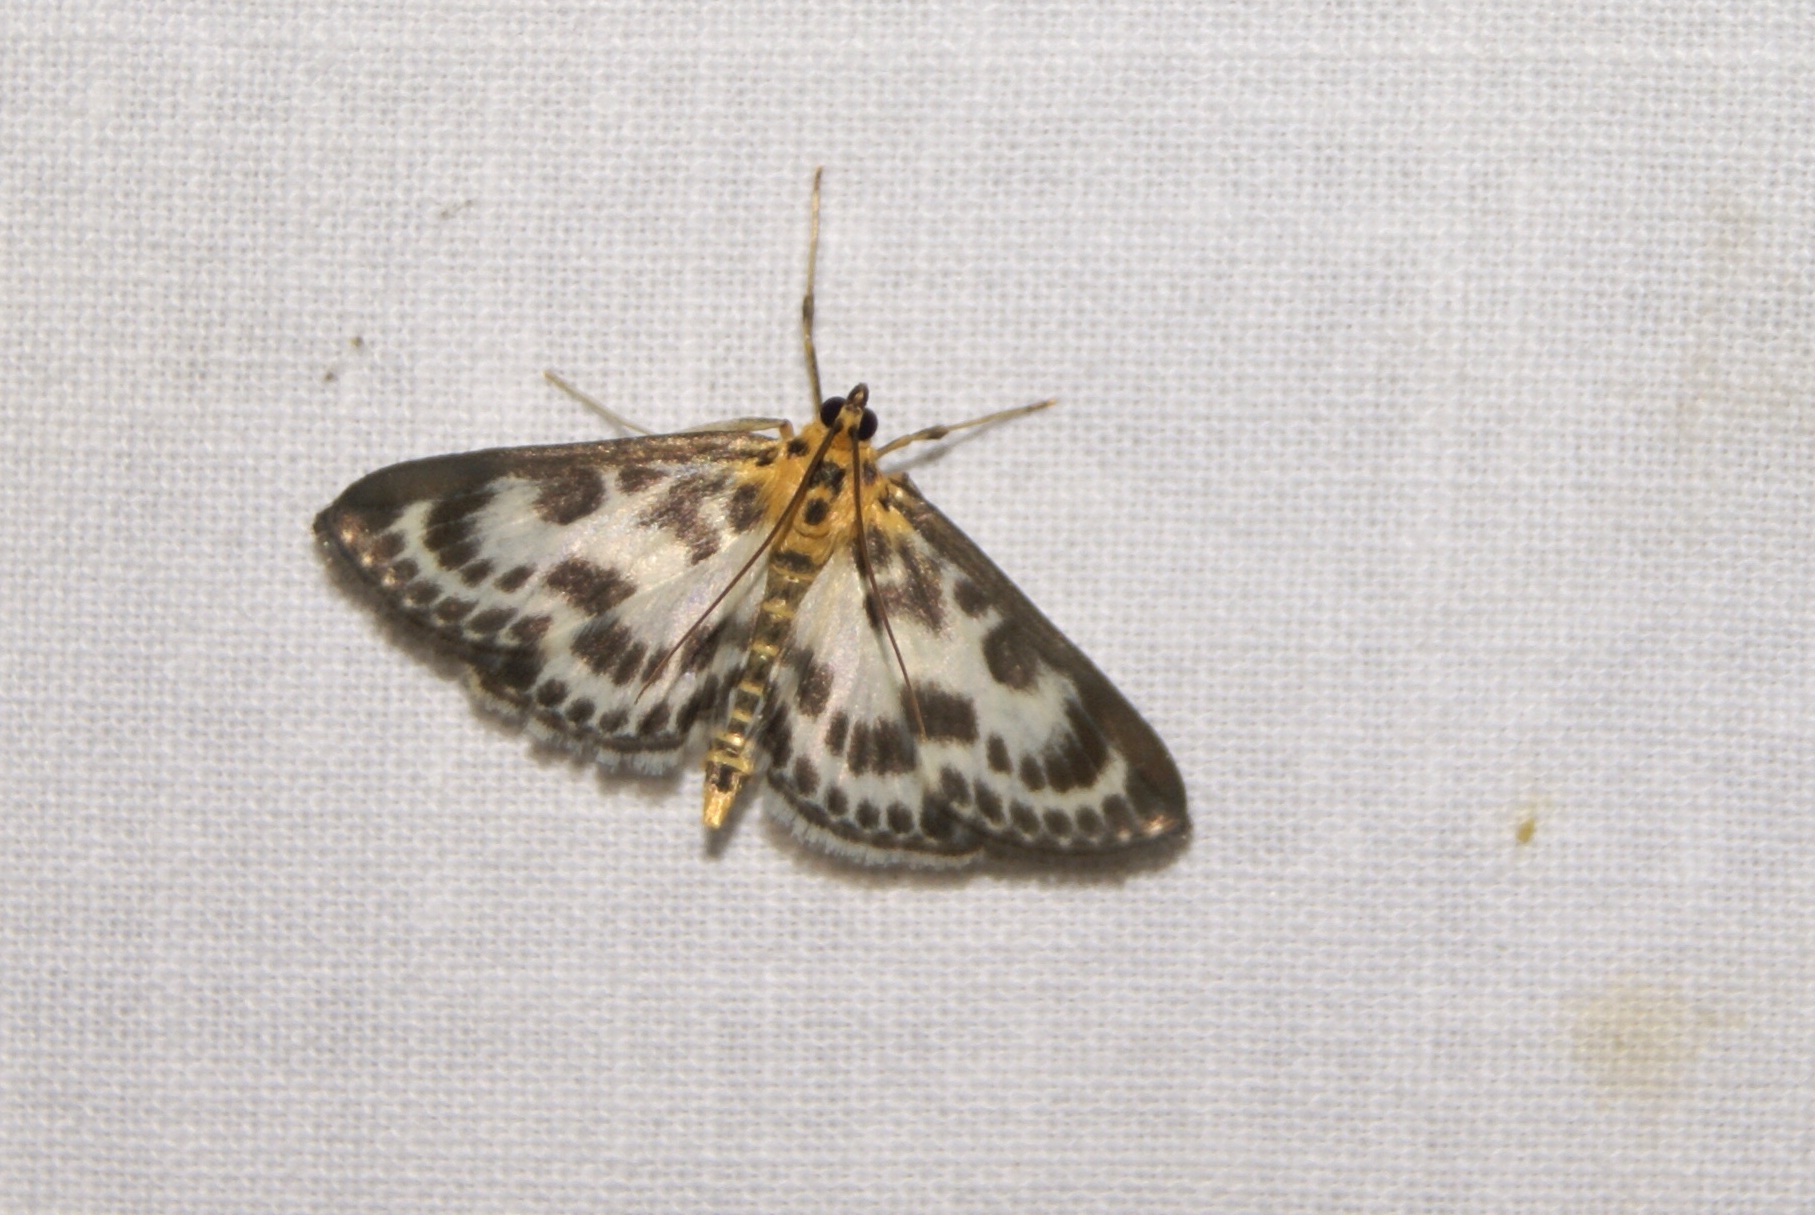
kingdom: Animalia
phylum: Arthropoda
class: Insecta
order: Lepidoptera
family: Crambidae
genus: Anania
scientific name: Anania hortulata
